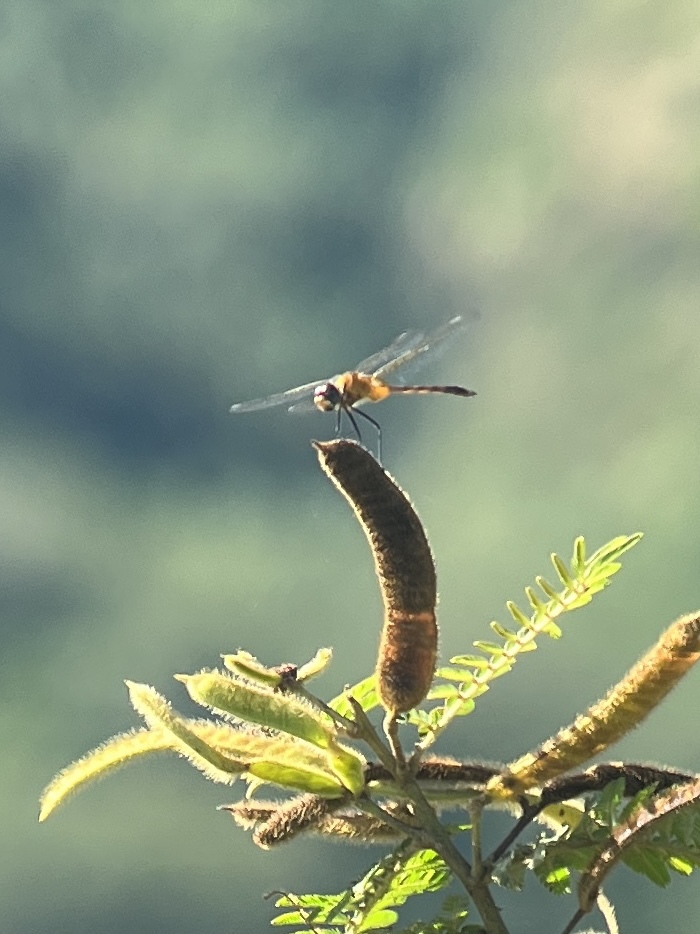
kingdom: Animalia
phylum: Arthropoda
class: Insecta
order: Odonata
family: Libellulidae
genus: Brachymesia
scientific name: Brachymesia herbida
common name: Tawny pennant
